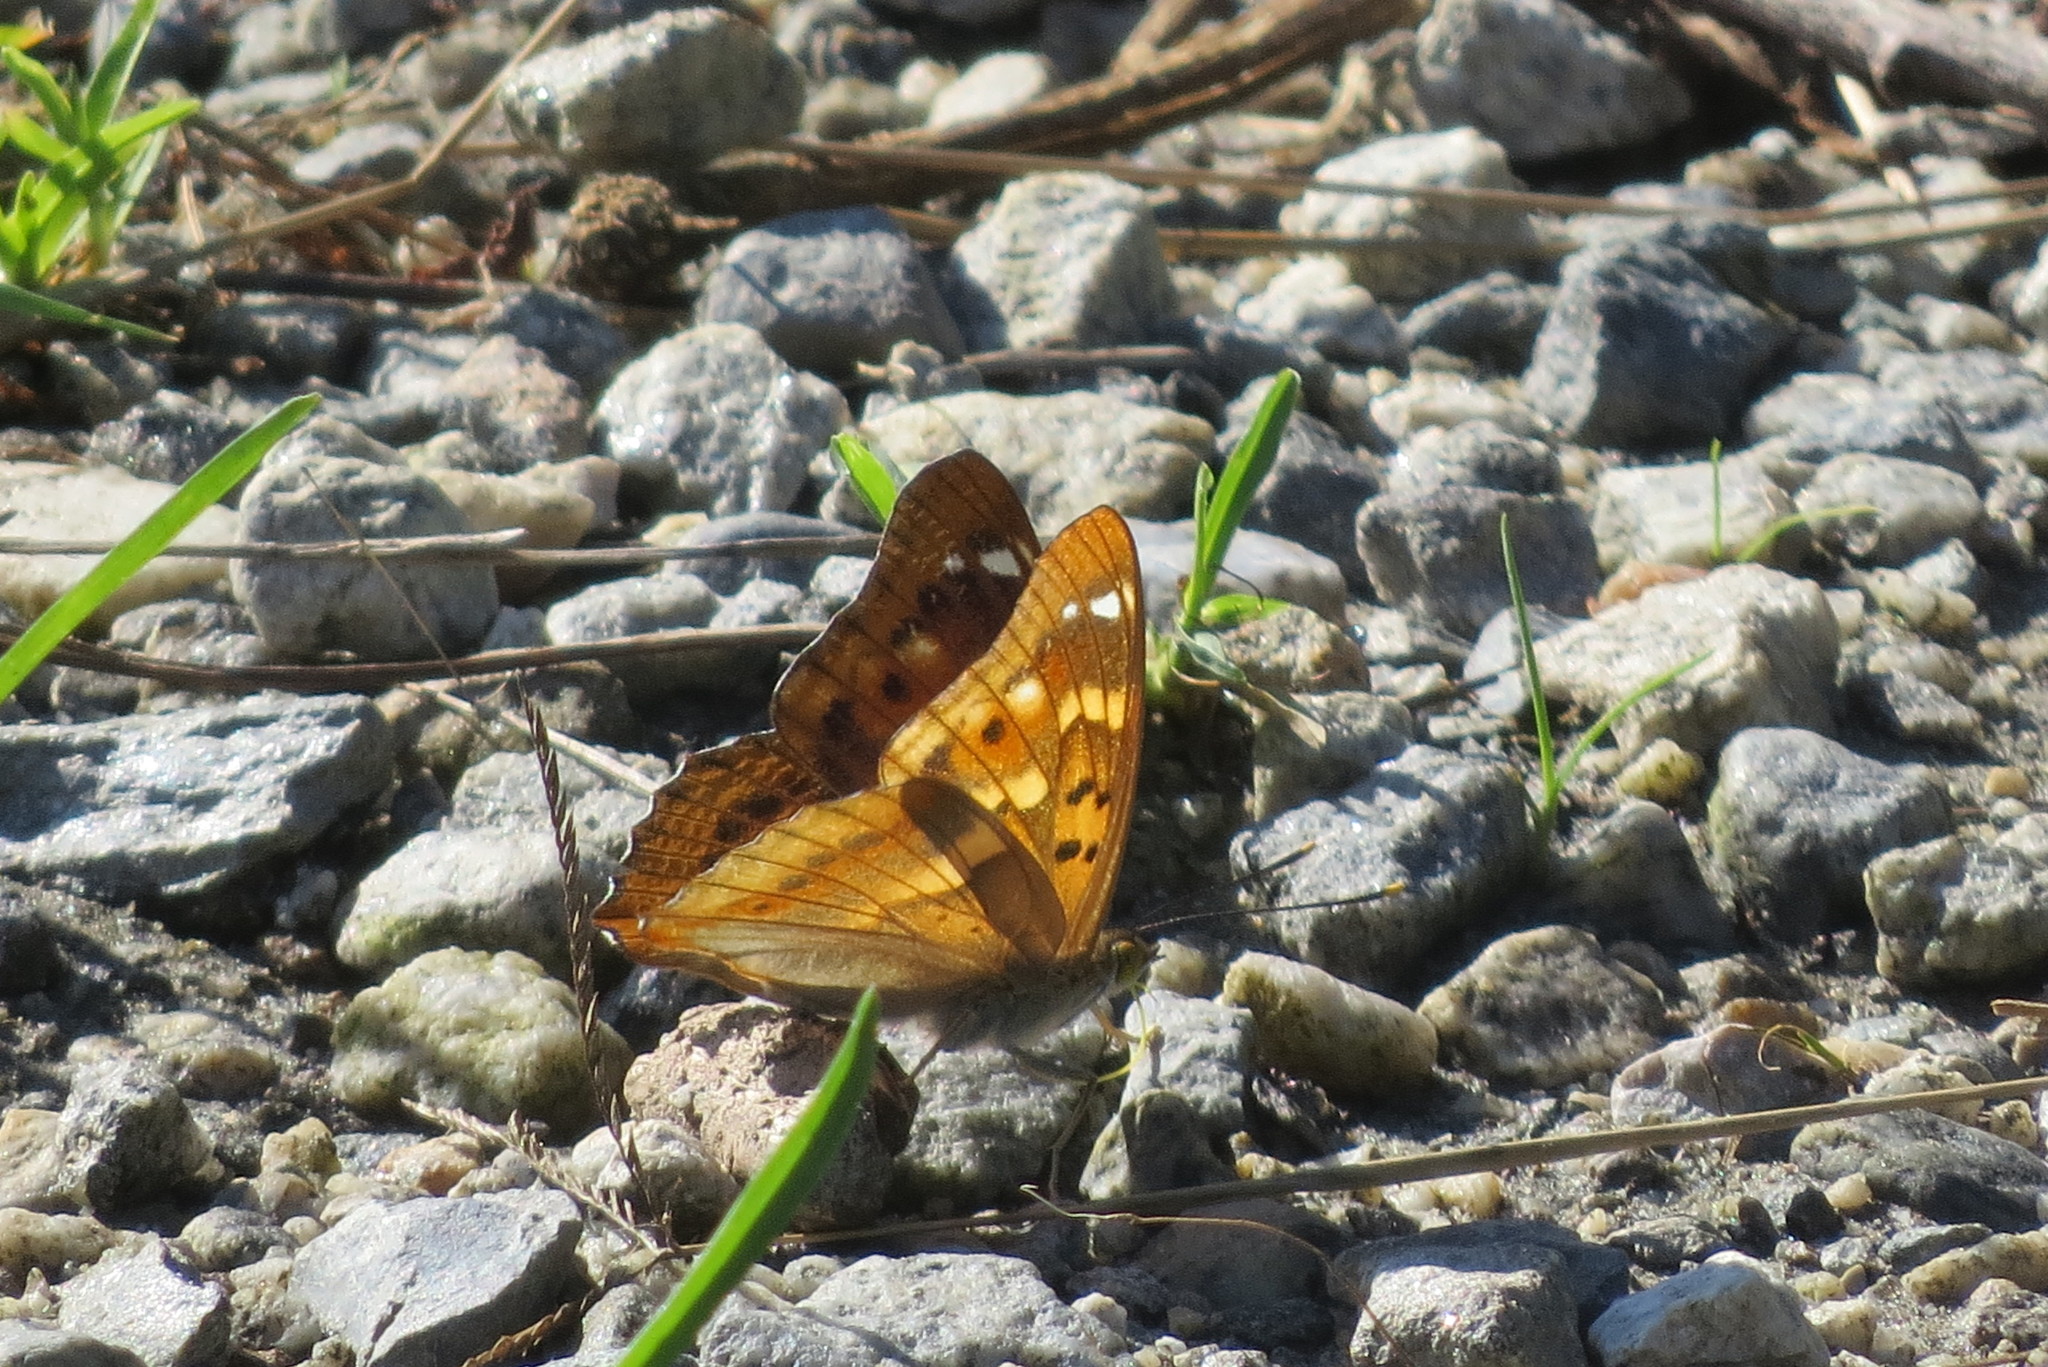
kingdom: Animalia
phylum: Arthropoda
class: Insecta
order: Lepidoptera
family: Nymphalidae
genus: Apatura
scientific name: Apatura ilia
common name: Lesser purple emperor
